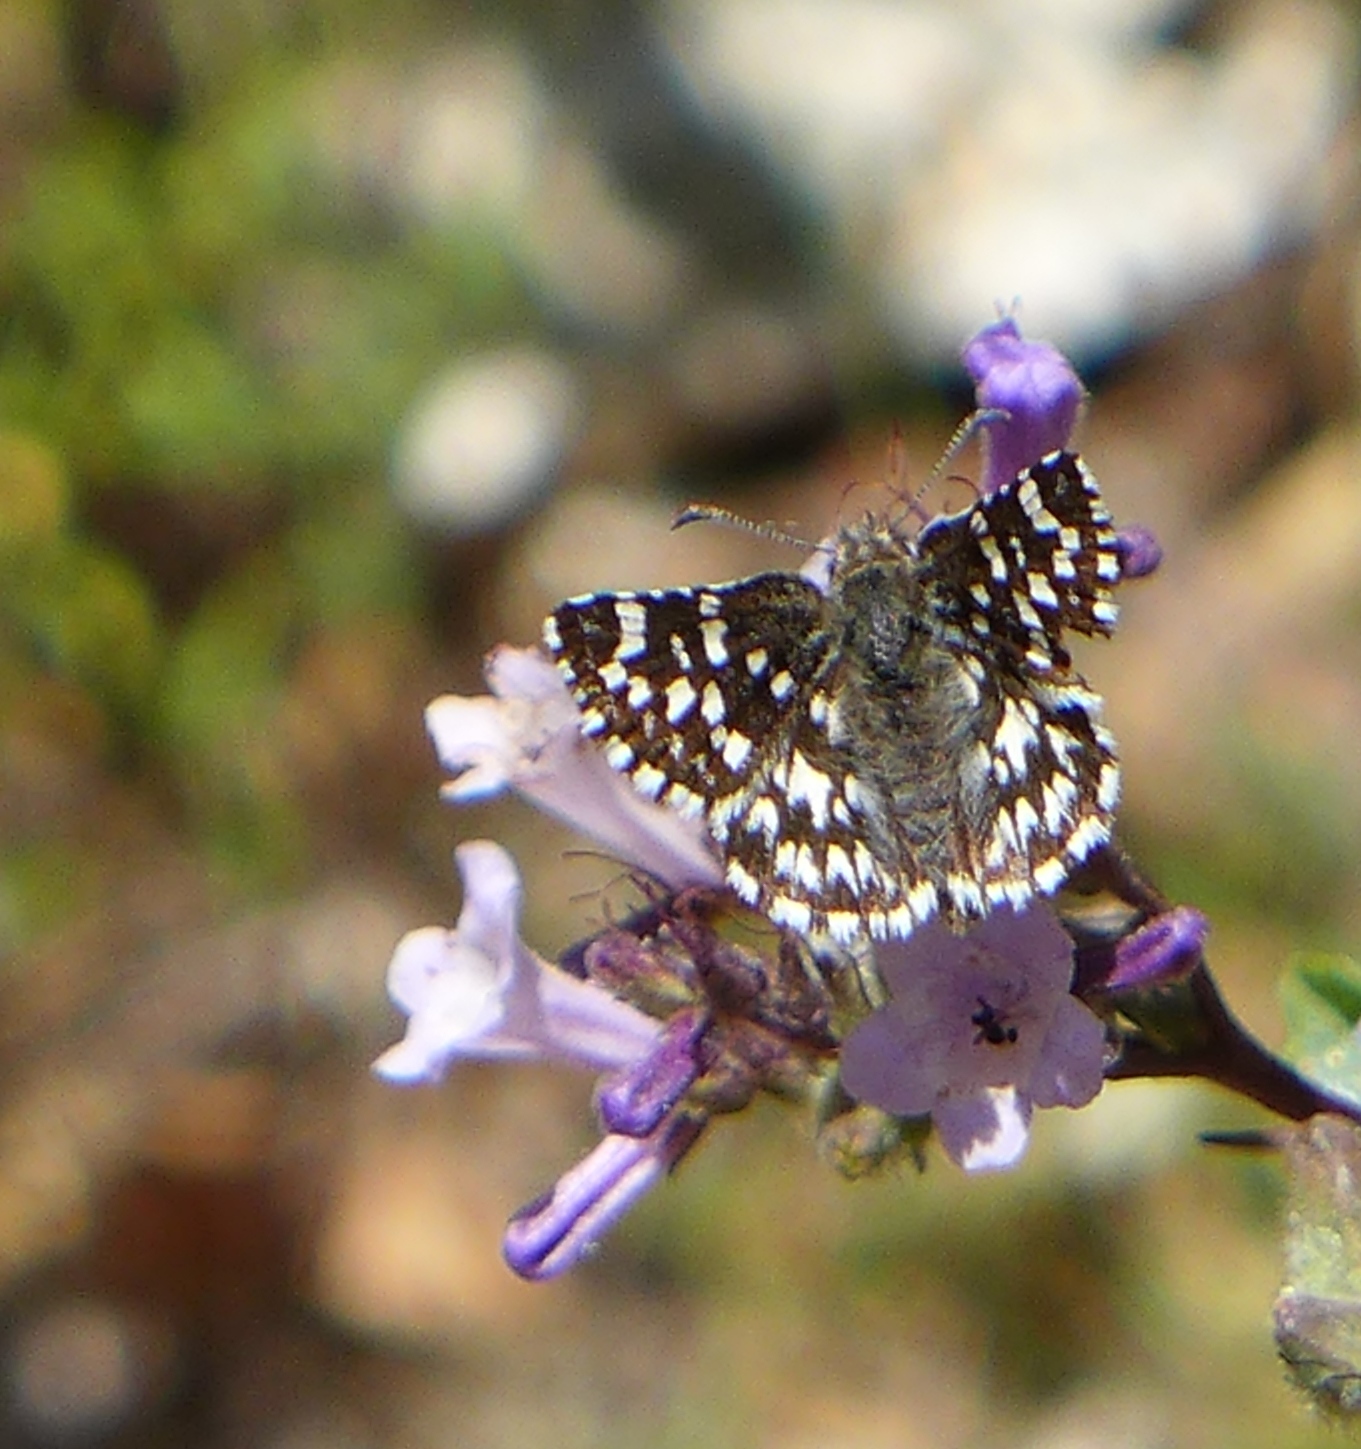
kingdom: Animalia
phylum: Arthropoda
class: Insecta
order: Lepidoptera
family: Hesperiidae
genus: Pyrgus
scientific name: Pyrgus ruralis
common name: Two-banded checkered-skipper
